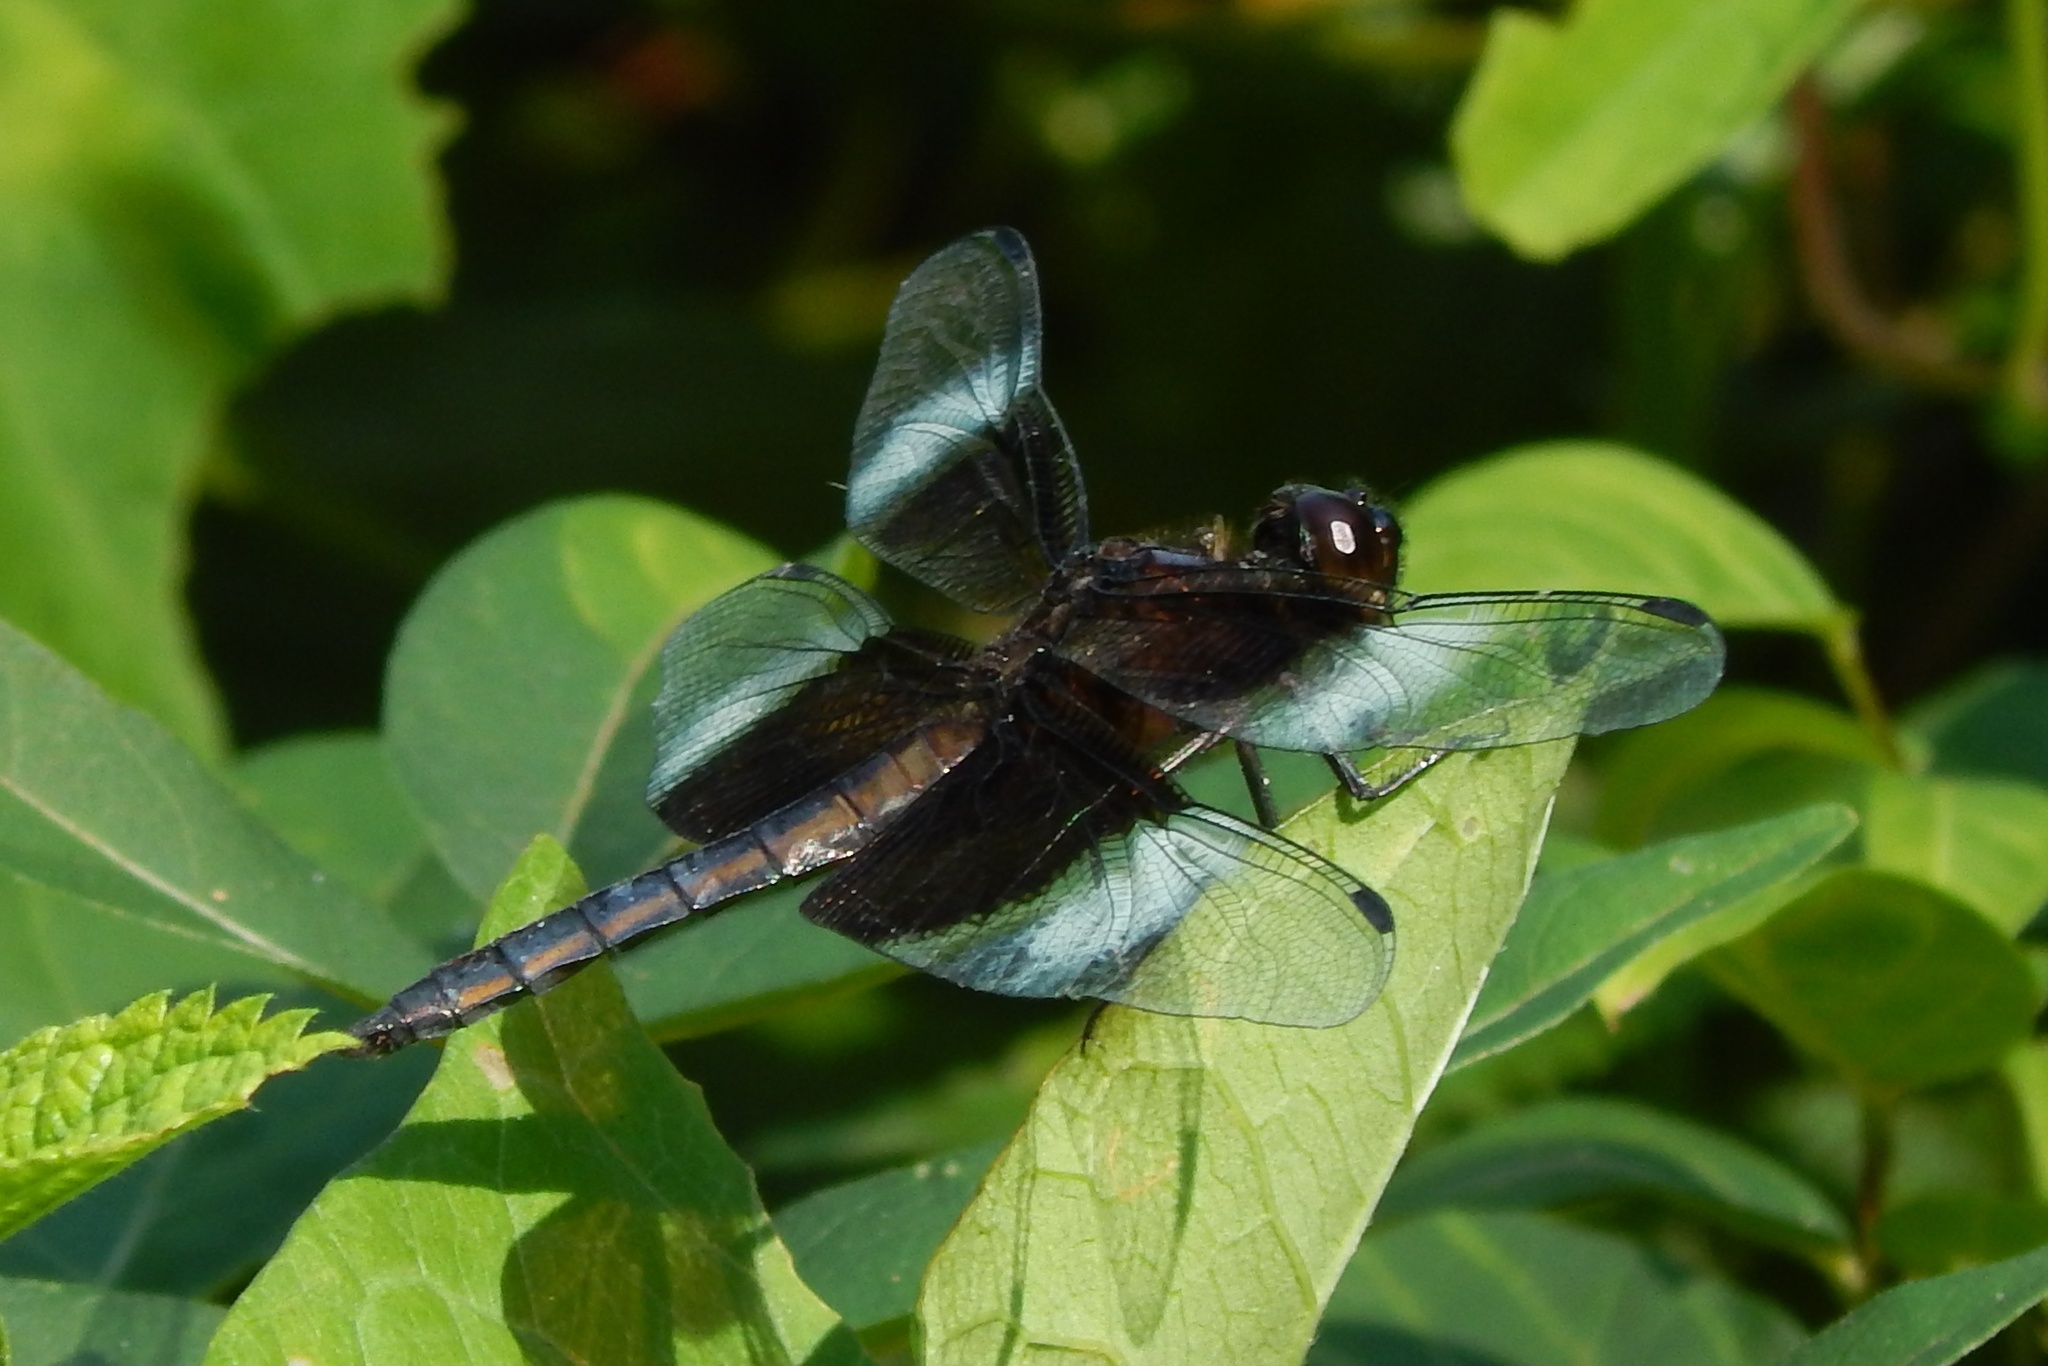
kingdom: Animalia
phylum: Arthropoda
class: Insecta
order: Odonata
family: Libellulidae
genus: Libellula
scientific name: Libellula luctuosa
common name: Widow skimmer
